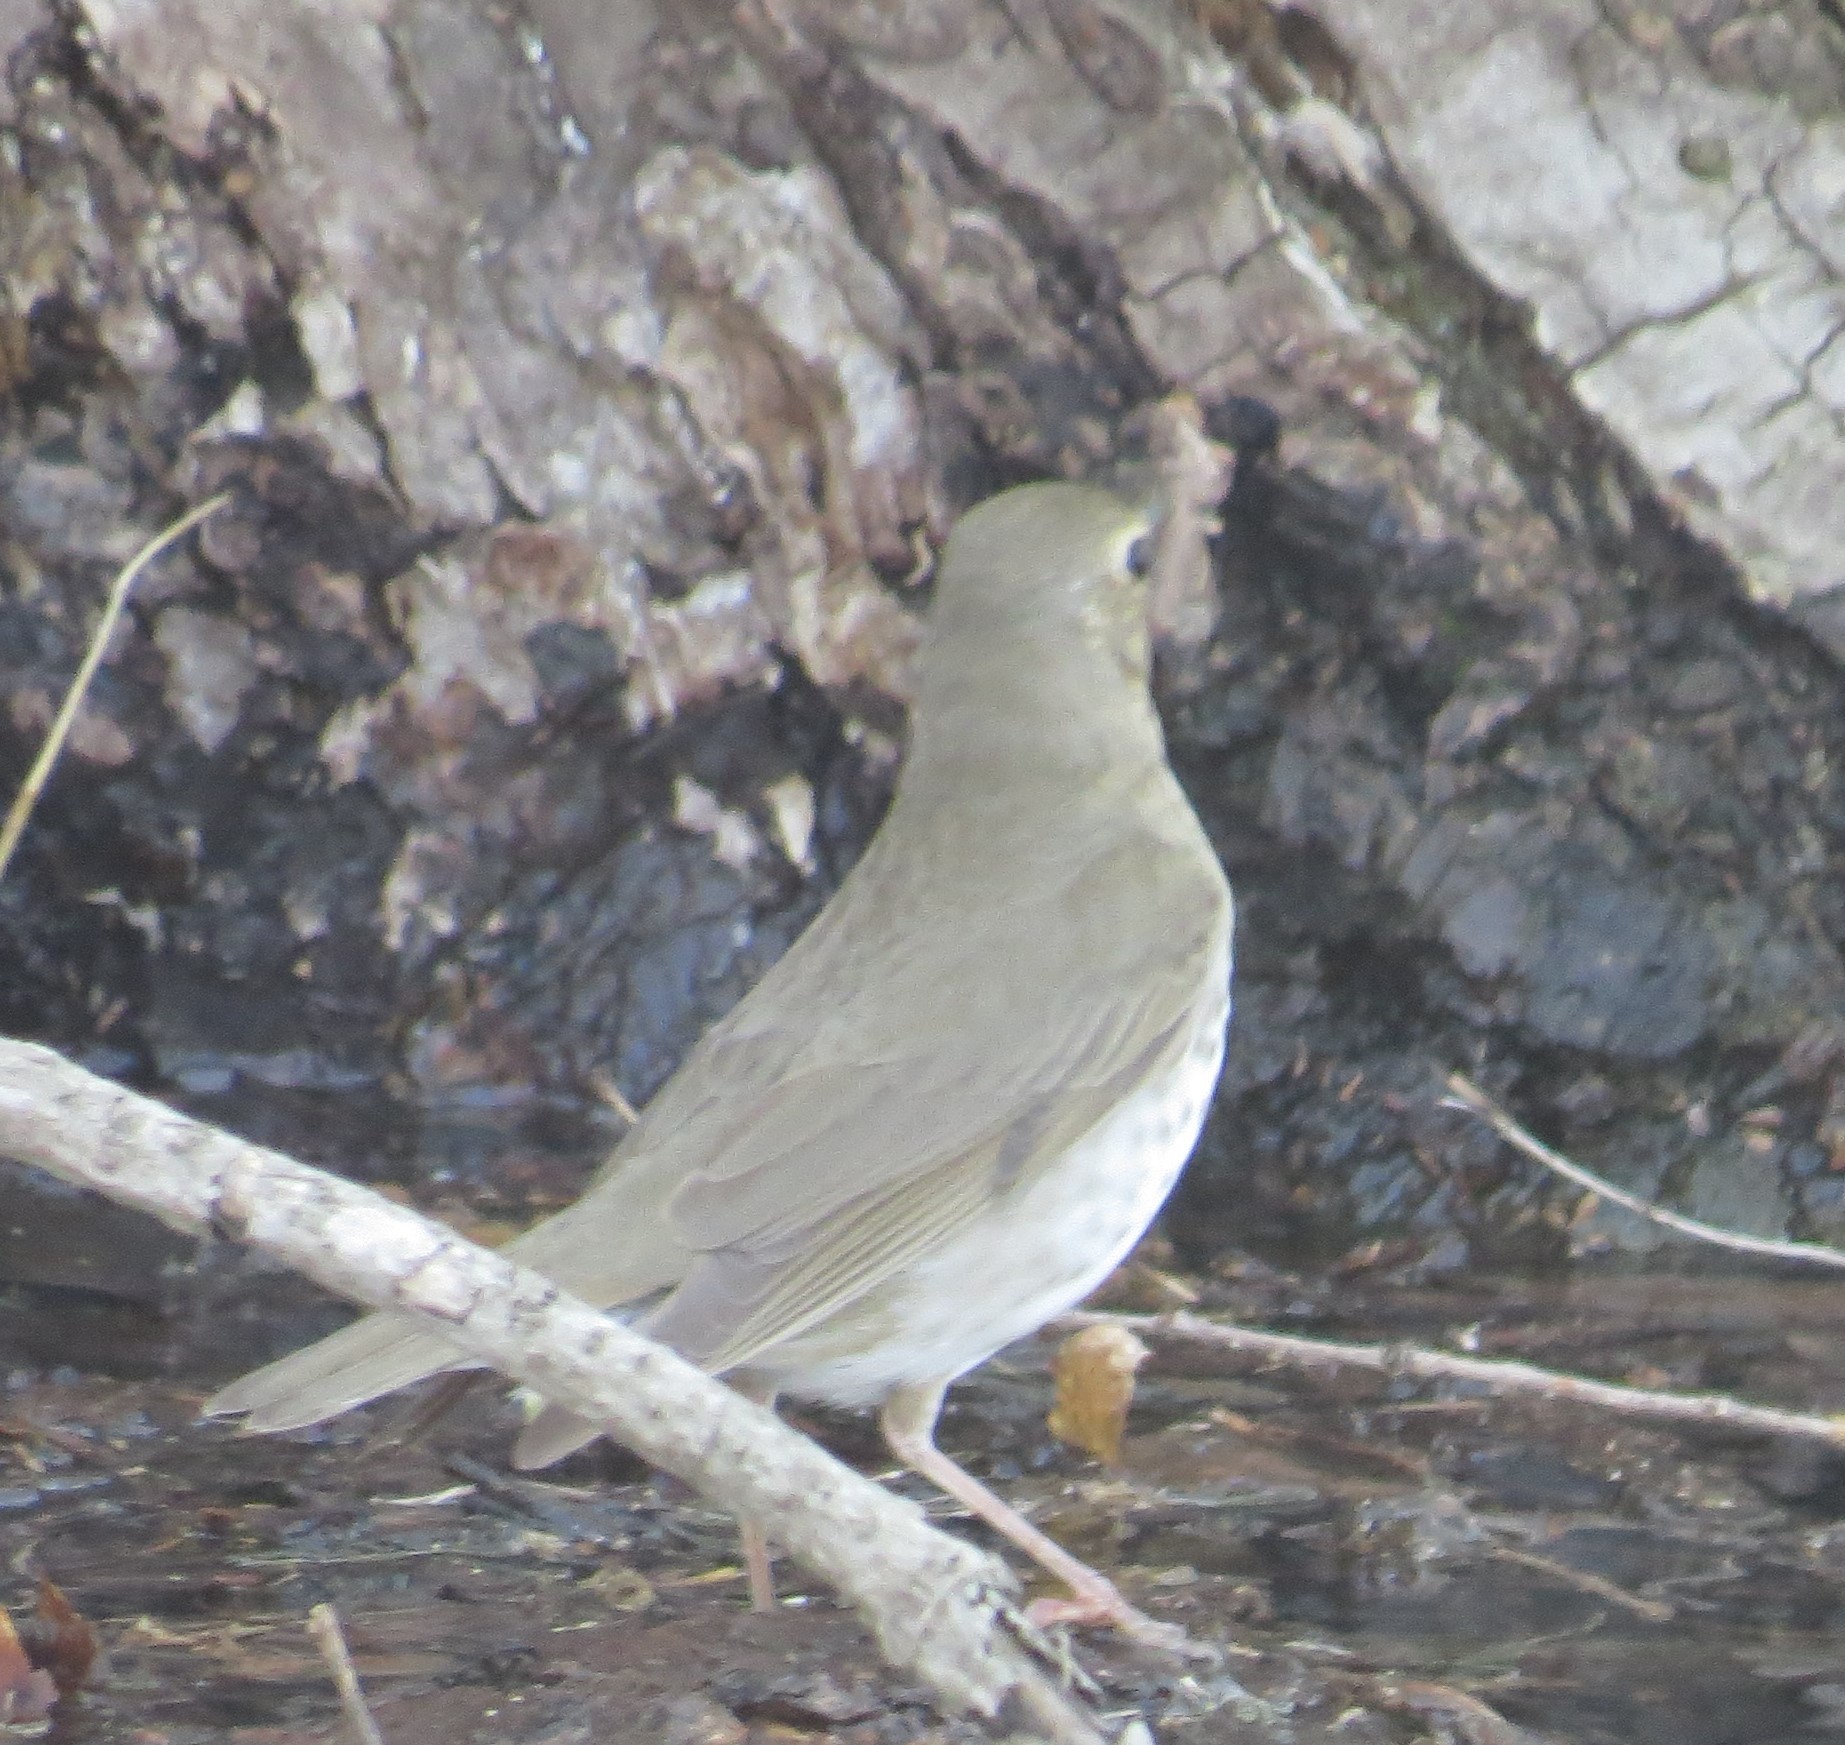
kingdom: Animalia
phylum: Chordata
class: Aves
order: Passeriformes
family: Turdidae
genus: Catharus
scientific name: Catharus ustulatus
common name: Swainson's thrush
